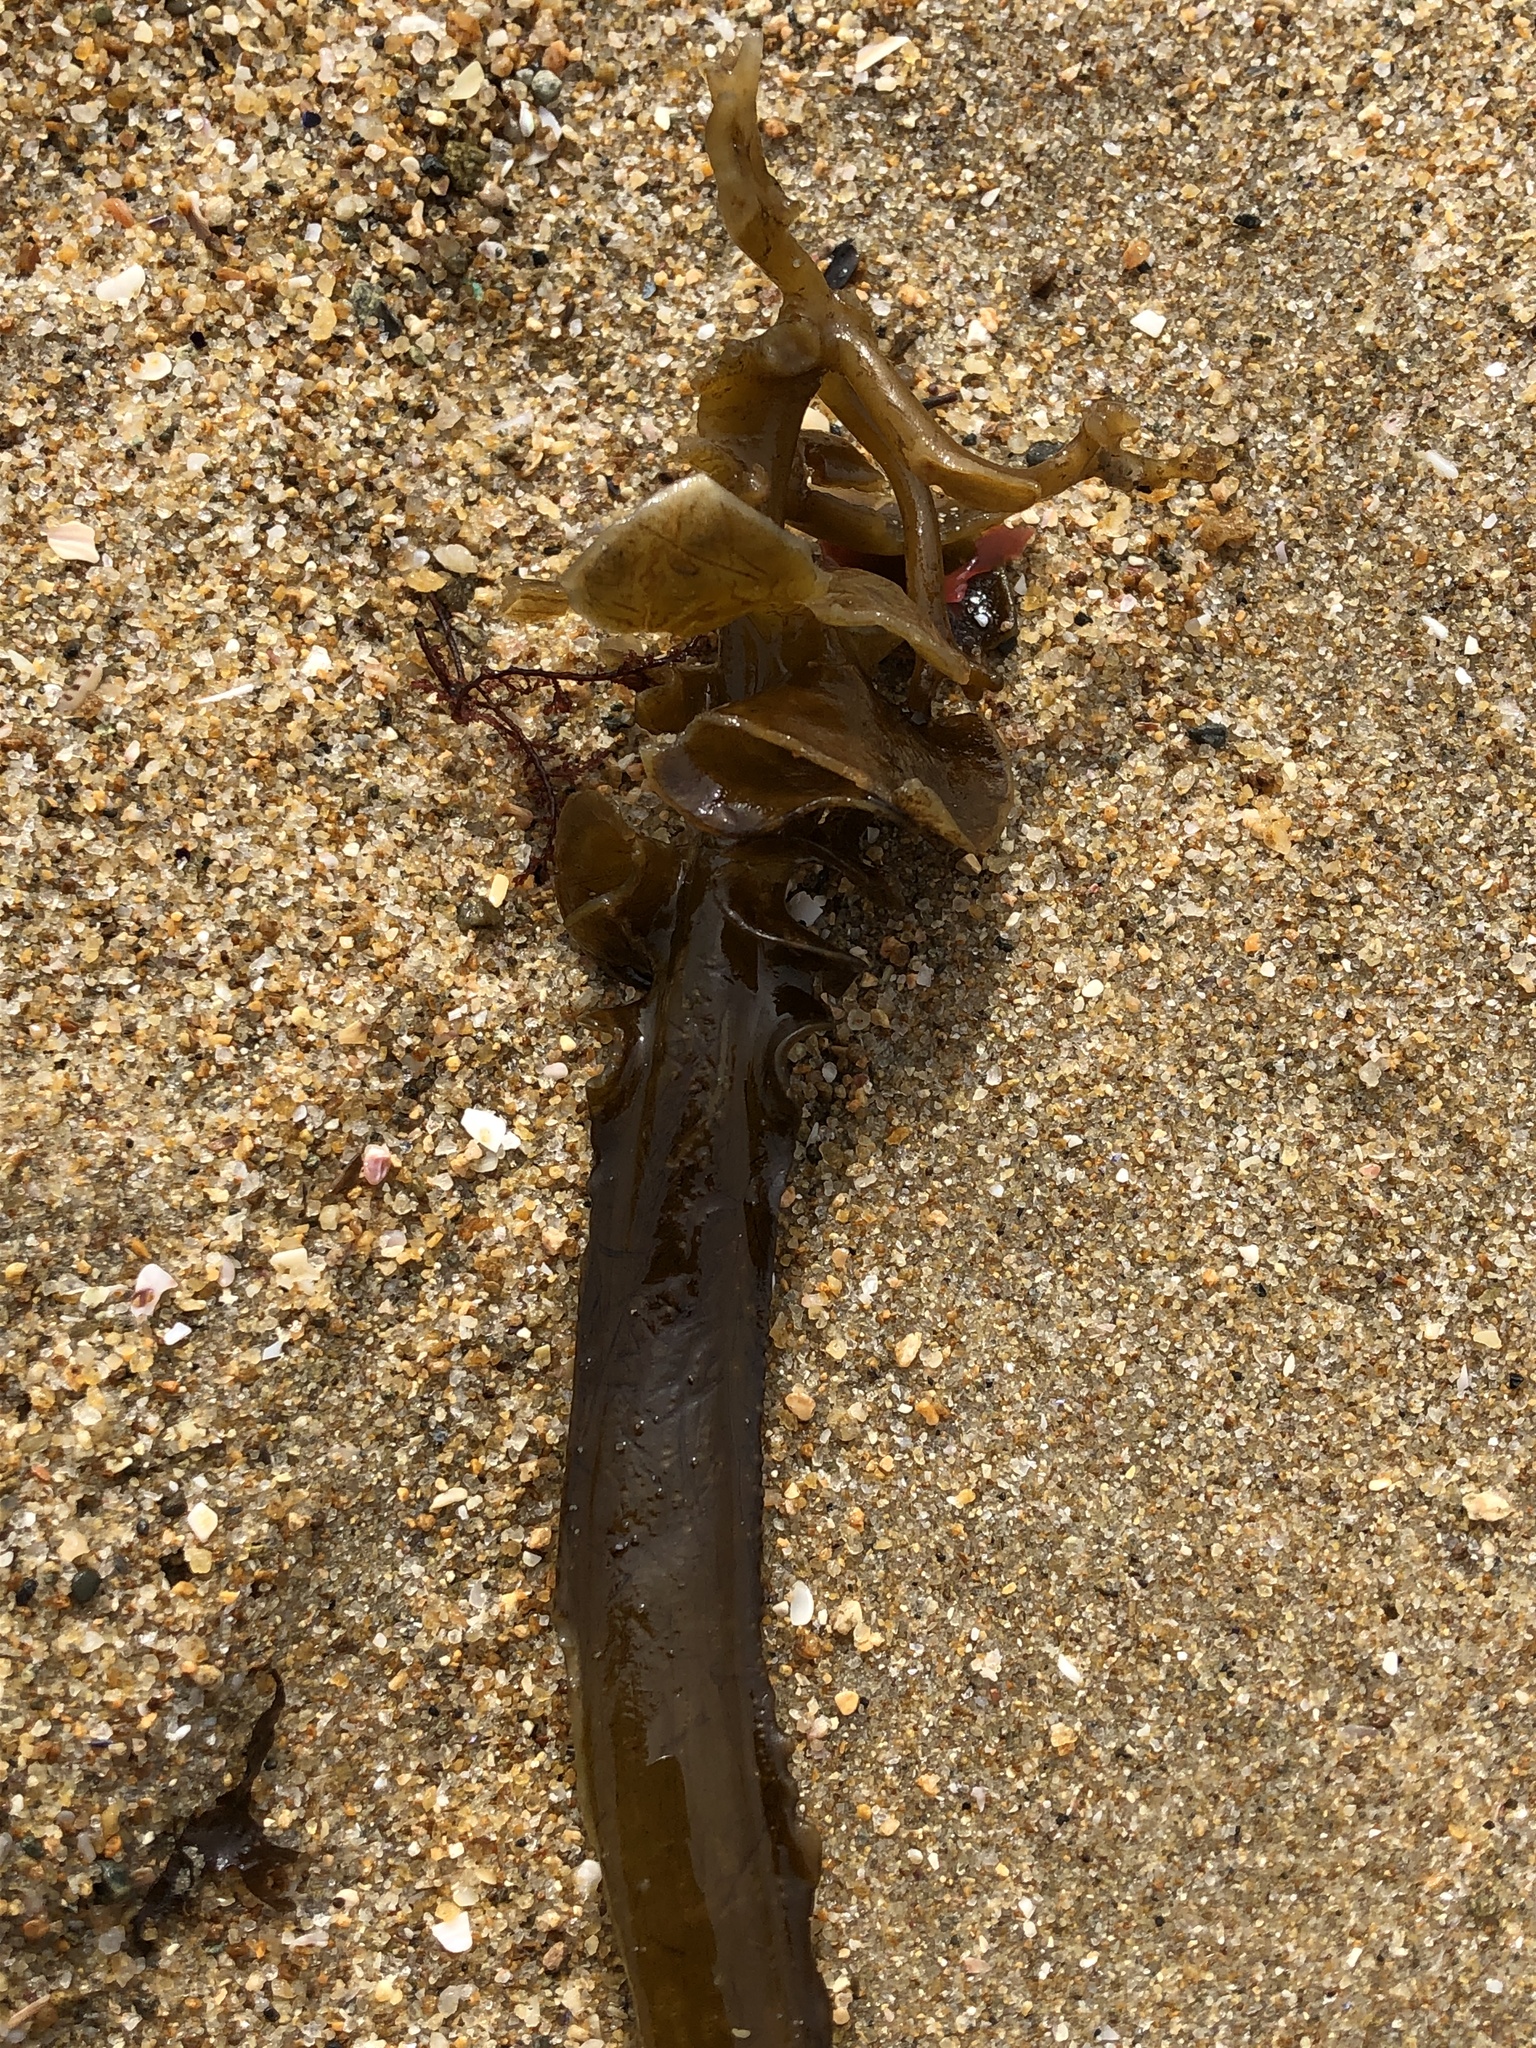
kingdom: Chromista
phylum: Ochrophyta
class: Phaeophyceae
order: Laminariales
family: Alariaceae
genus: Undaria
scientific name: Undaria pinnatifida
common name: Asian kelp
